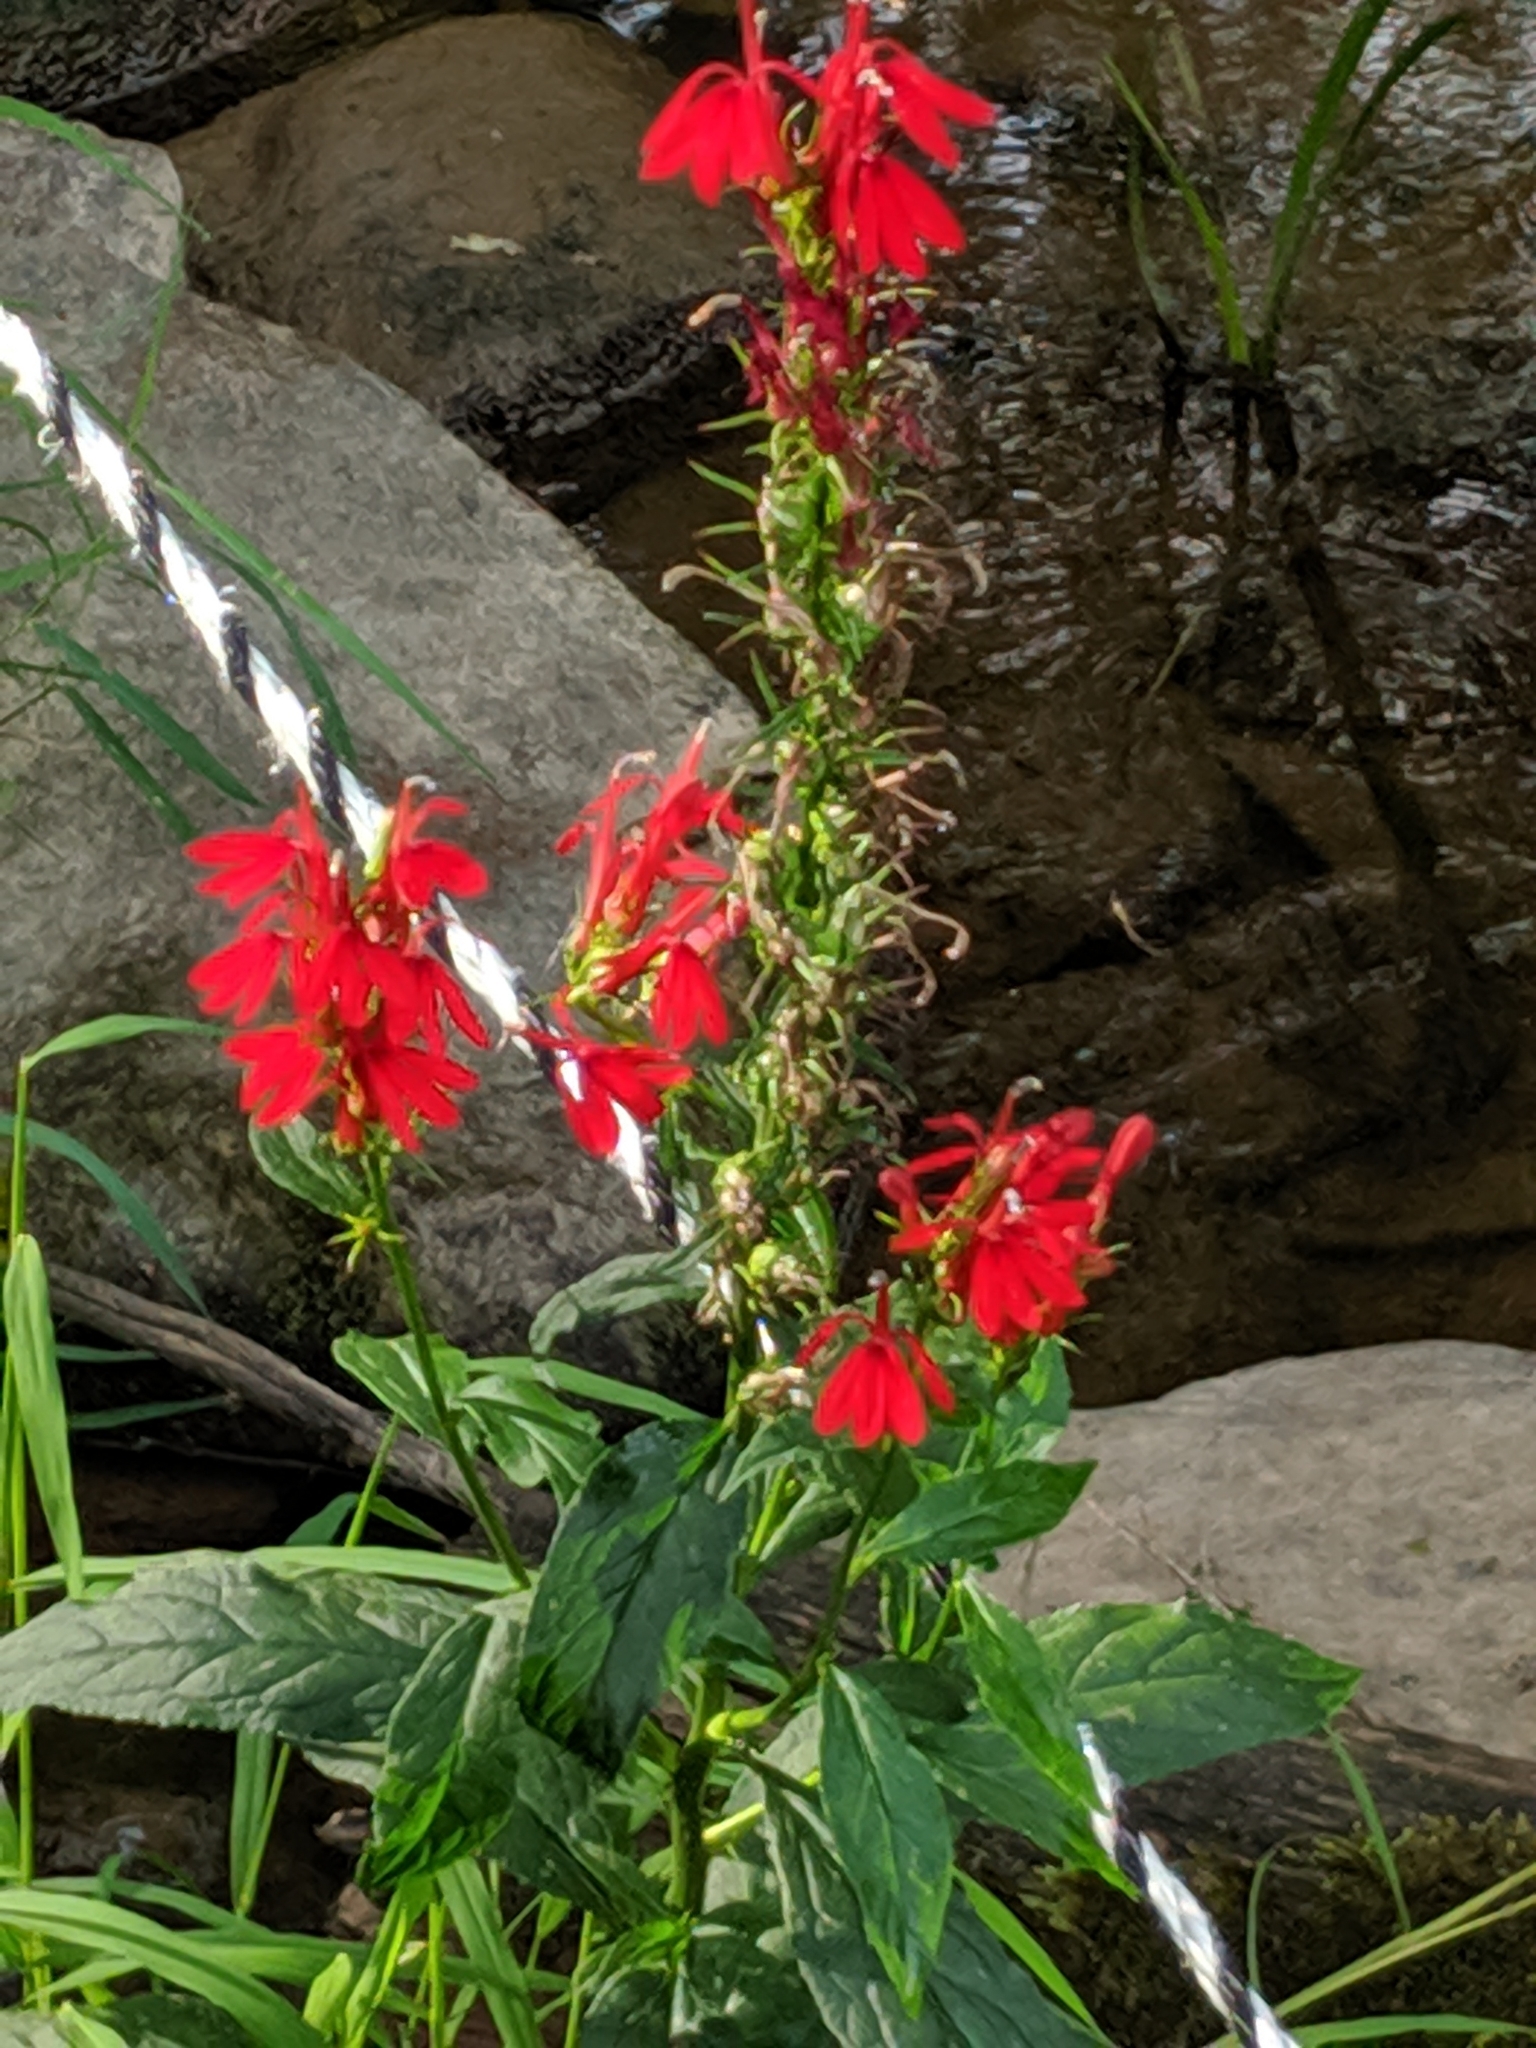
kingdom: Plantae
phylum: Tracheophyta
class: Magnoliopsida
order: Asterales
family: Campanulaceae
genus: Lobelia
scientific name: Lobelia cardinalis
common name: Cardinal flower
